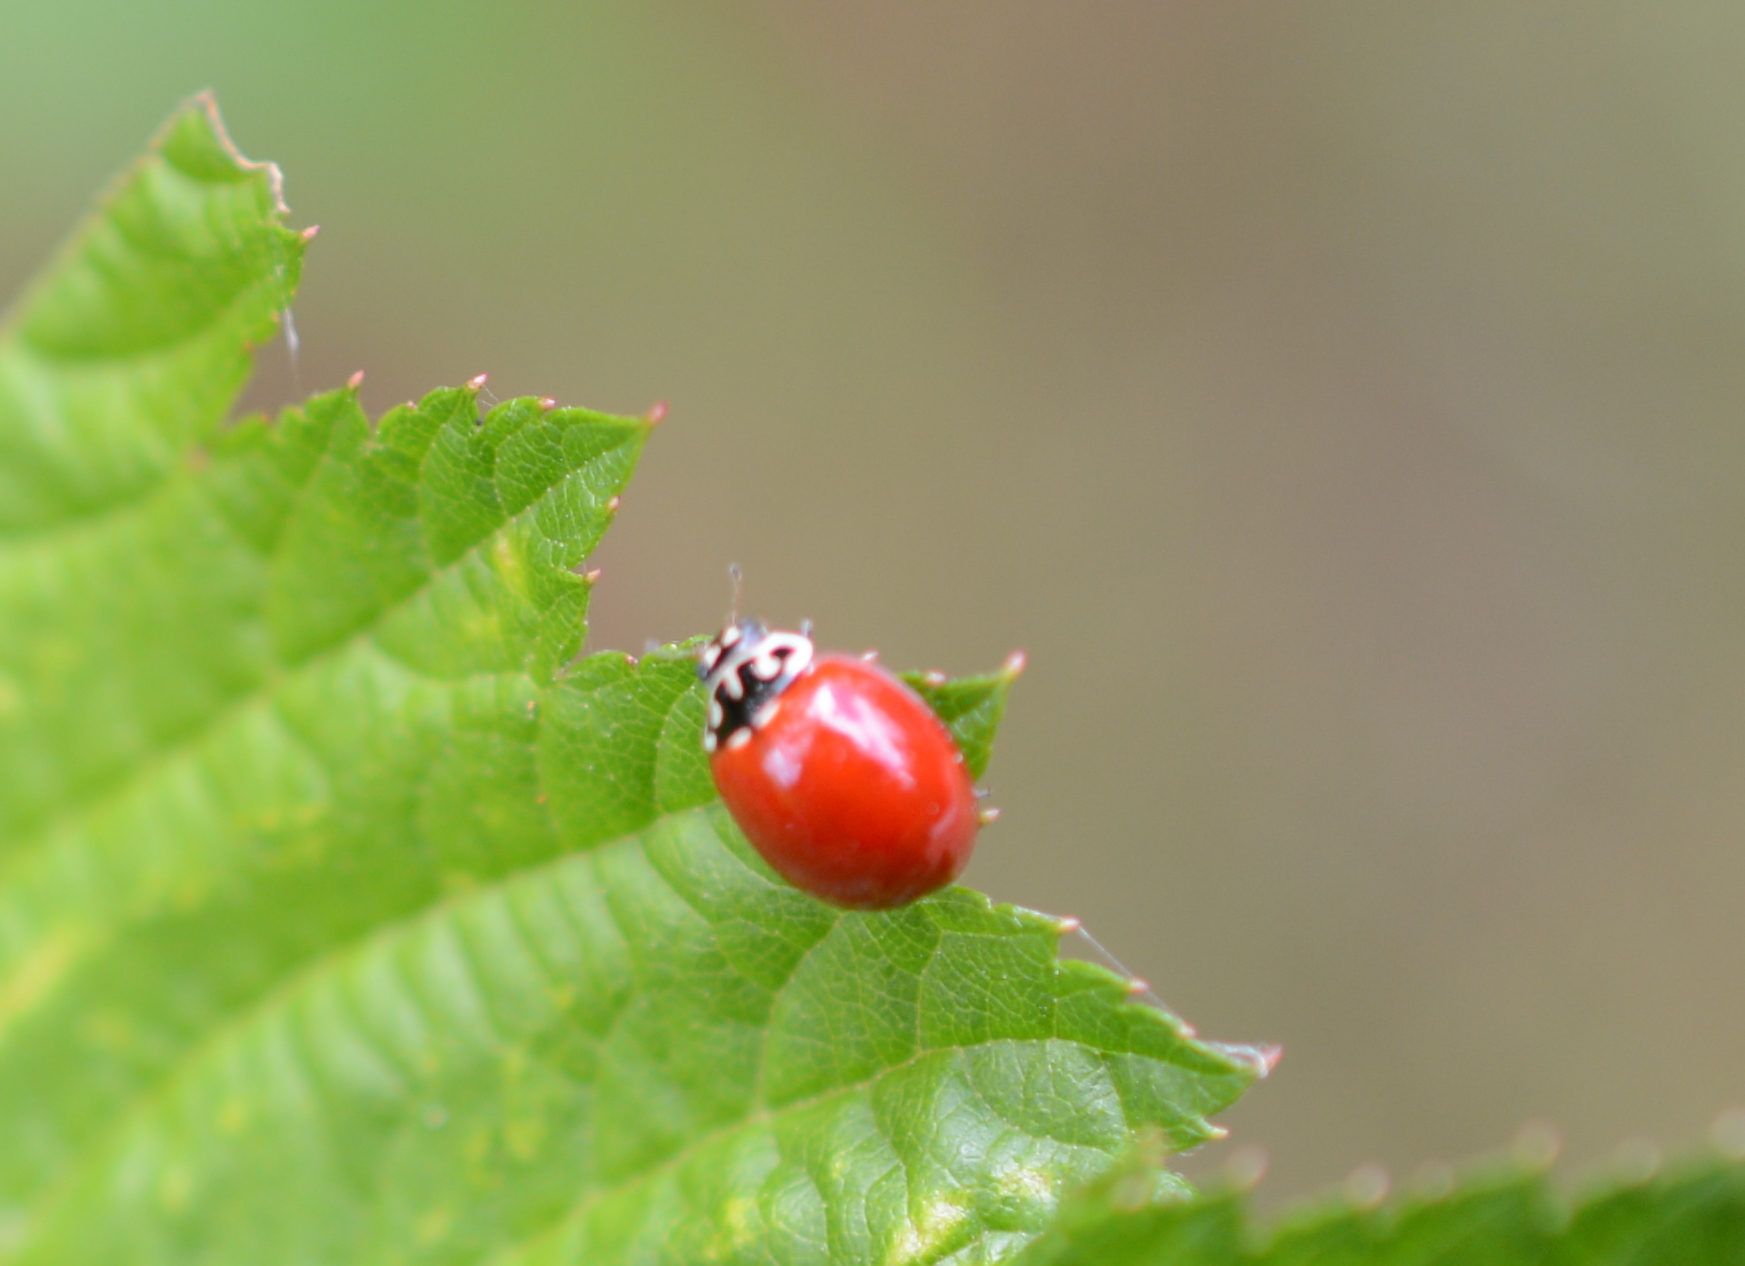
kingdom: Animalia
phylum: Arthropoda
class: Insecta
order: Coleoptera
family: Coccinellidae
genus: Cycloneda
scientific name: Cycloneda polita
